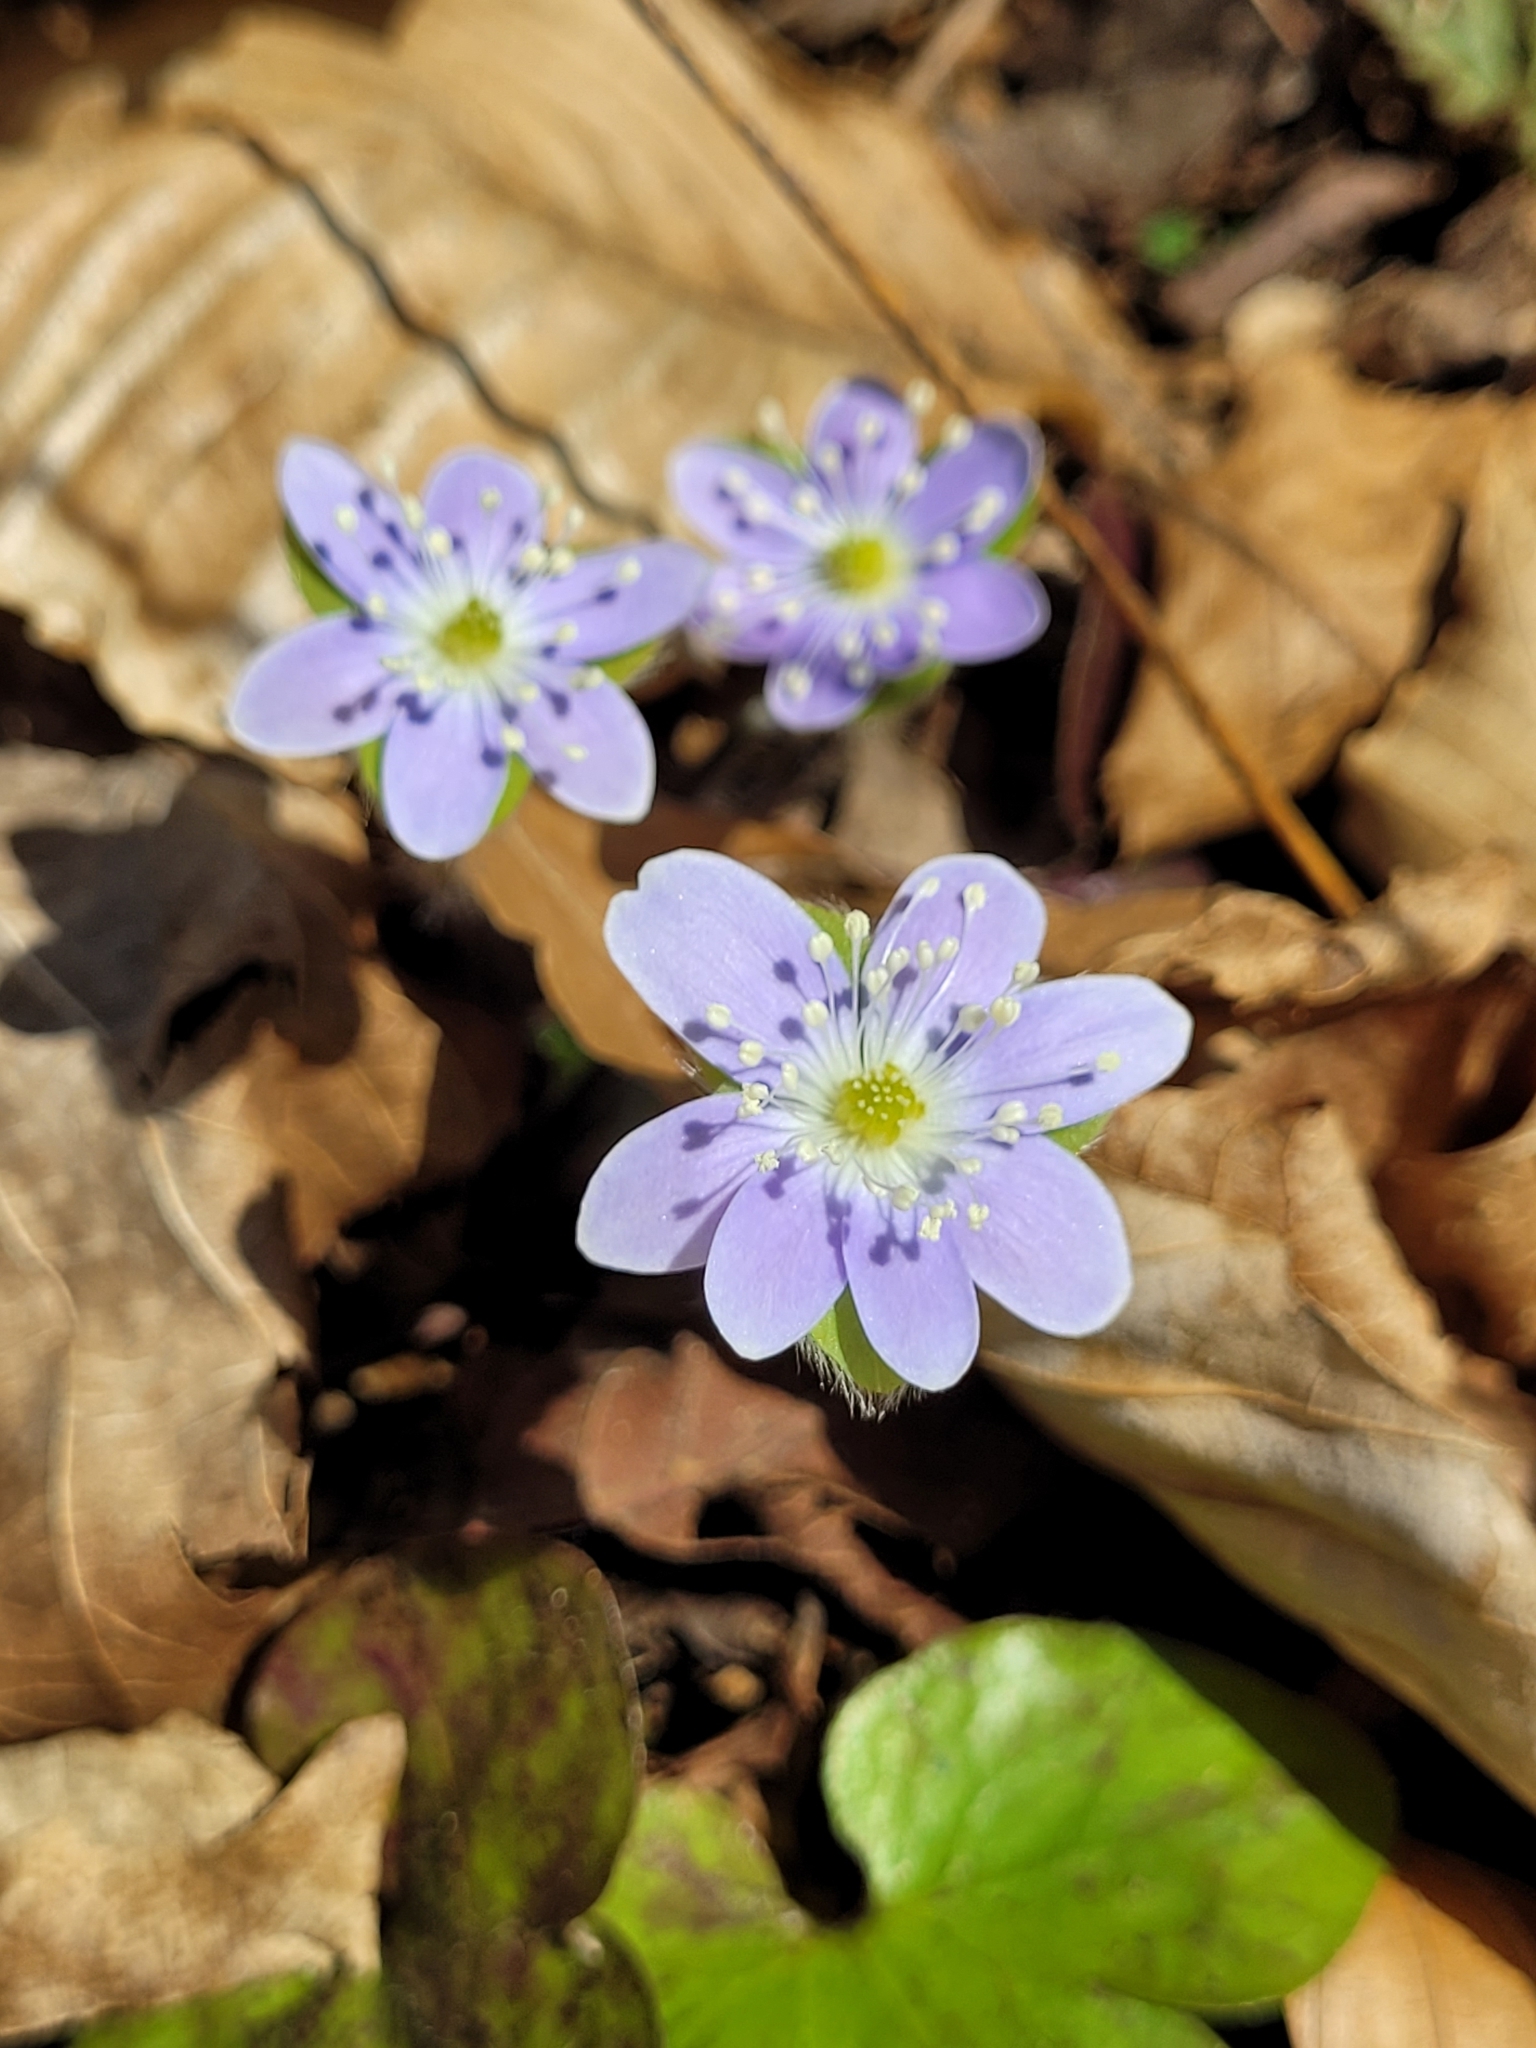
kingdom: Plantae
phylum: Tracheophyta
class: Magnoliopsida
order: Ranunculales
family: Ranunculaceae
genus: Hepatica
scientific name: Hepatica americana
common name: American hepatica
